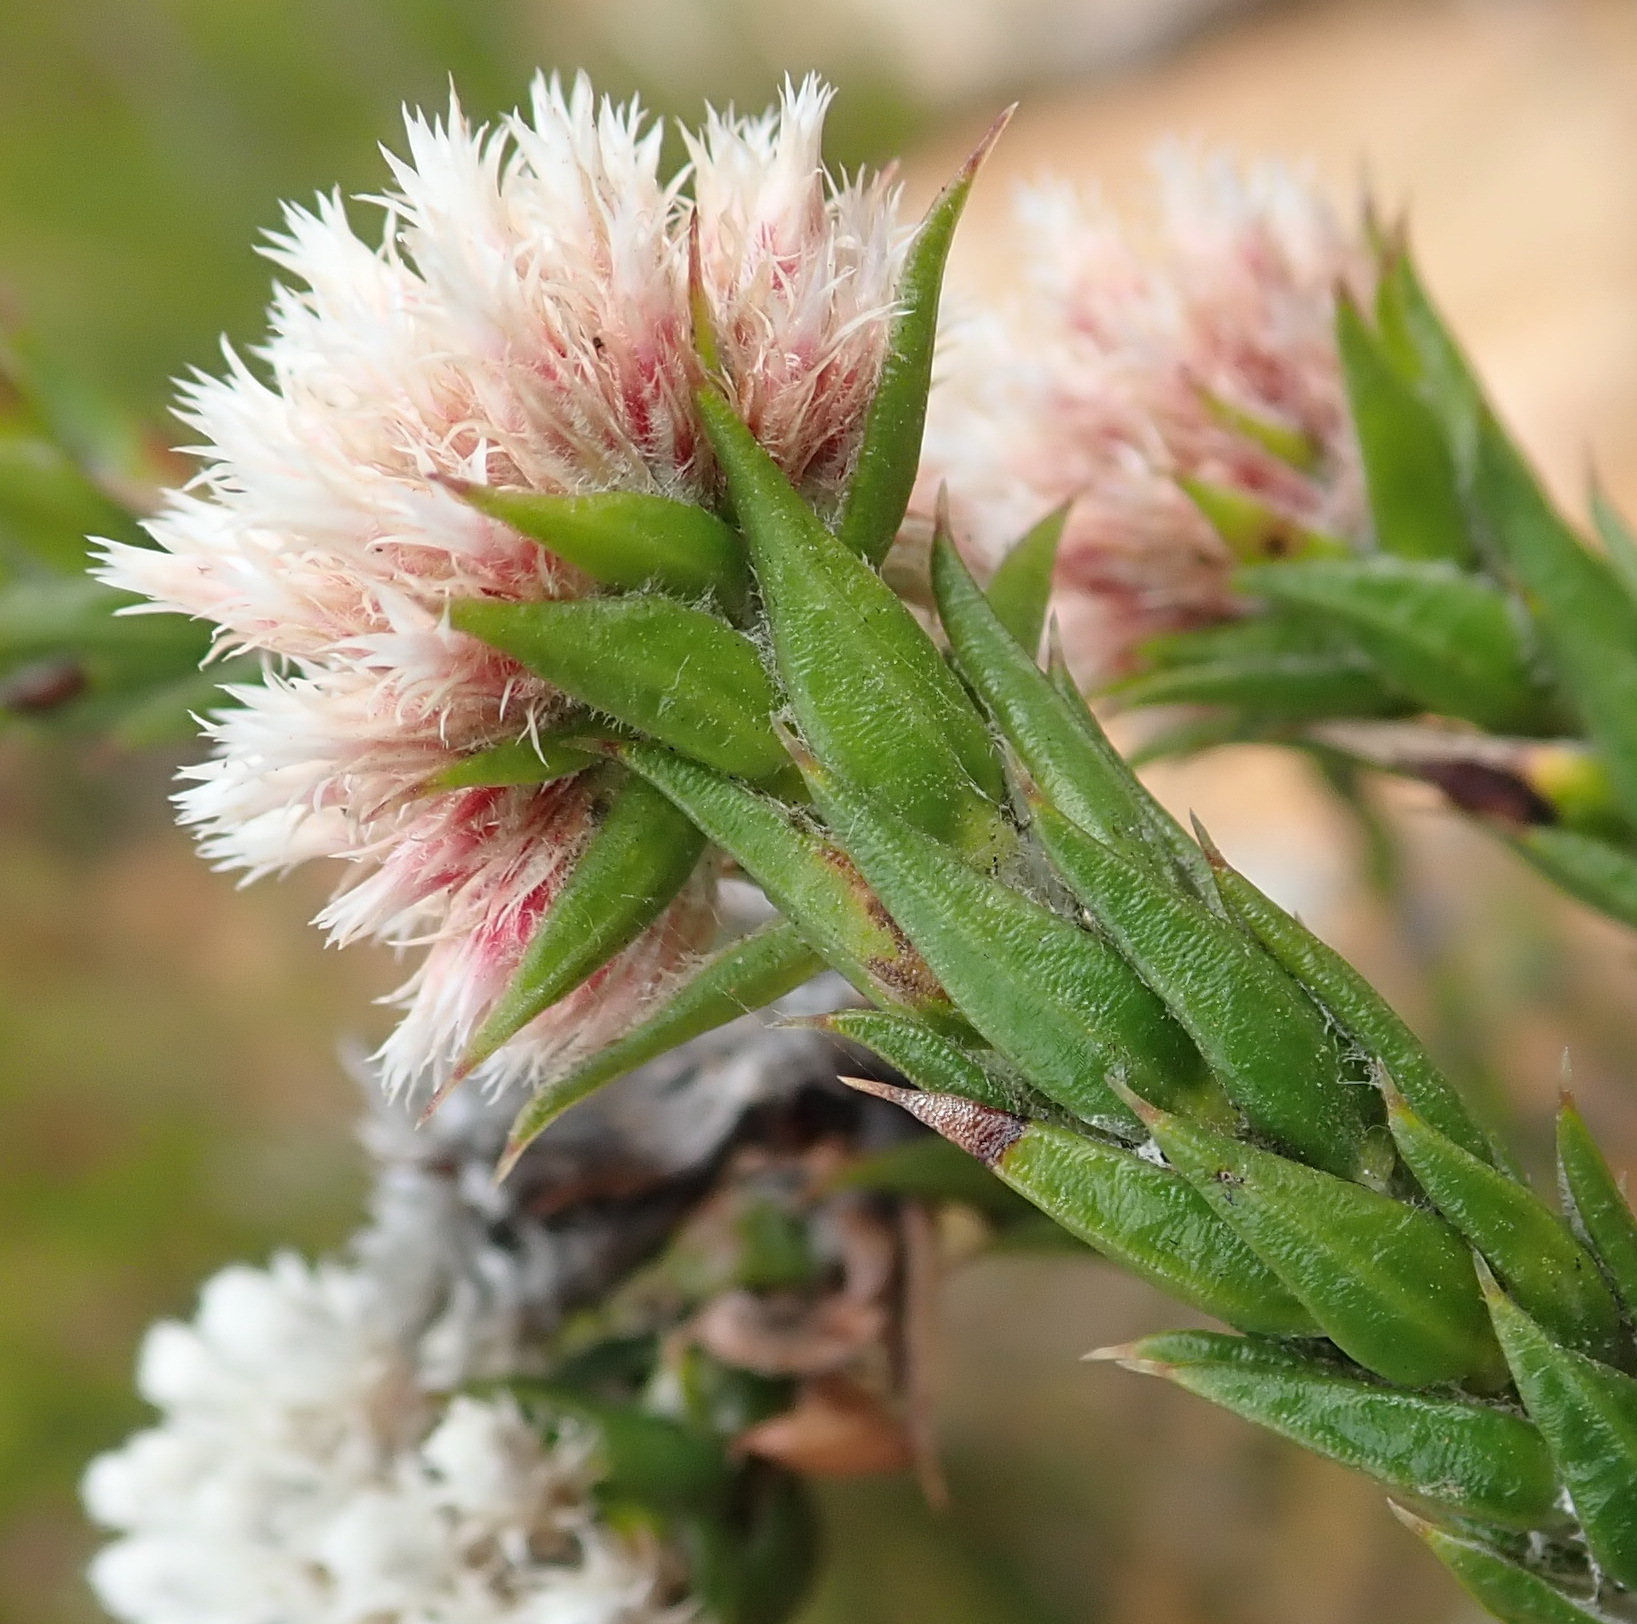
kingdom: Plantae
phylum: Tracheophyta
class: Magnoliopsida
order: Asterales
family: Asteraceae
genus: Metalasia
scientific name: Metalasia pulcherrima
